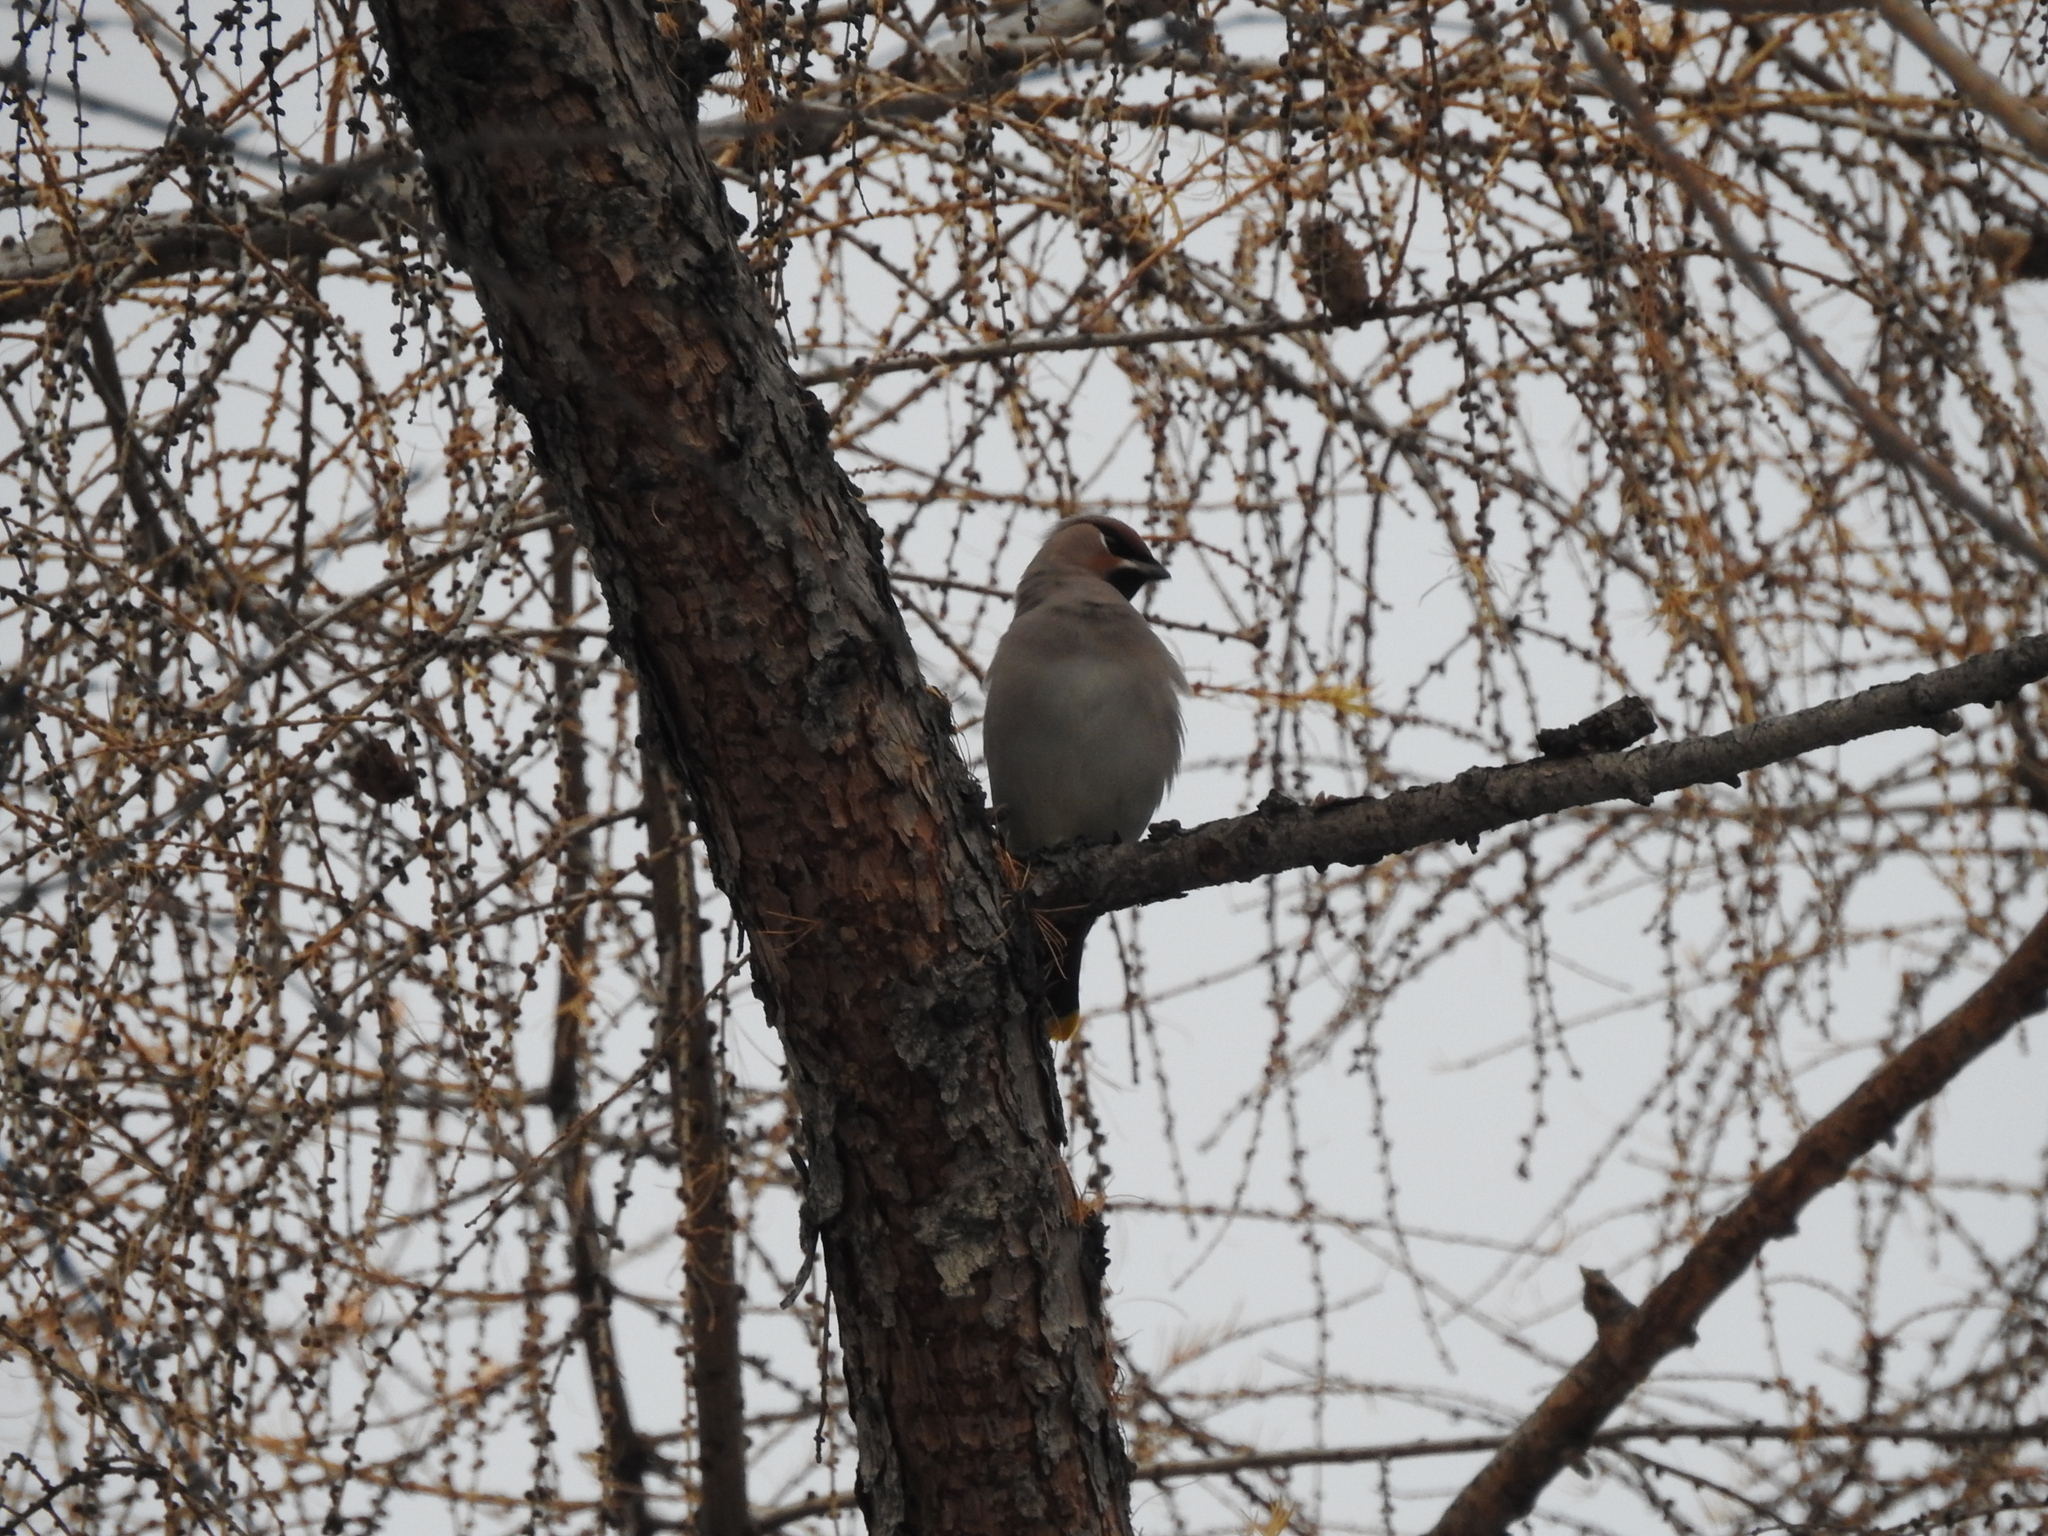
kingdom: Animalia
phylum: Chordata
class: Aves
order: Passeriformes
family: Bombycillidae
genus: Bombycilla
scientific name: Bombycilla garrulus
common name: Bohemian waxwing
